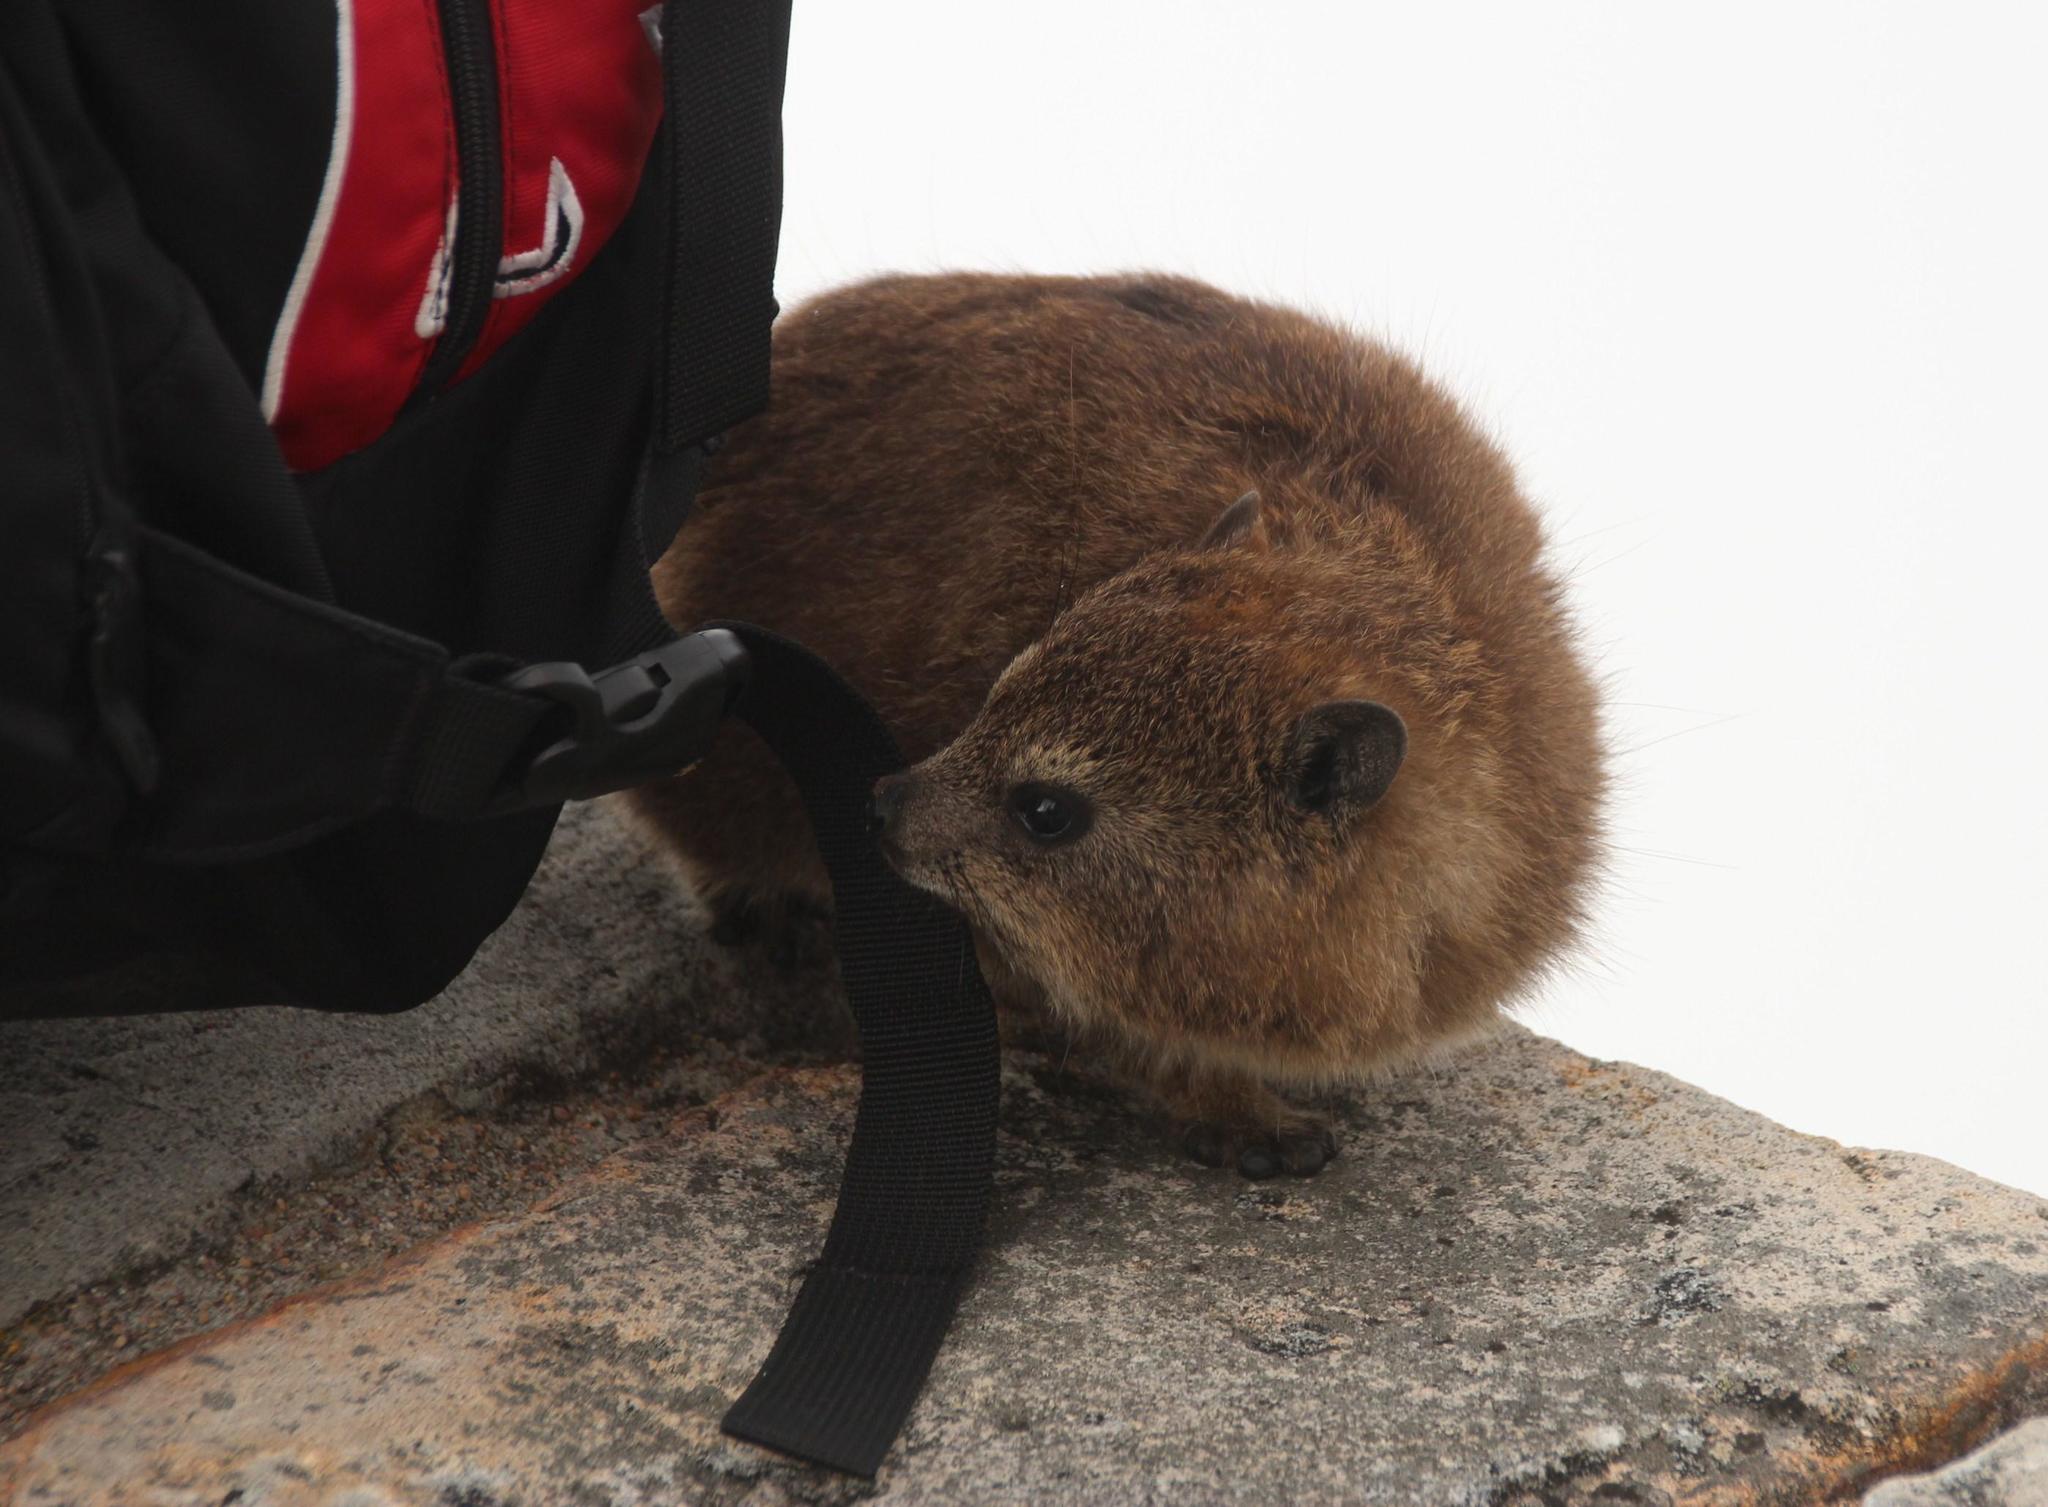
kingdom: Animalia
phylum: Chordata
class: Mammalia
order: Hyracoidea
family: Procaviidae
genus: Procavia
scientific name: Procavia capensis
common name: Rock hyrax
